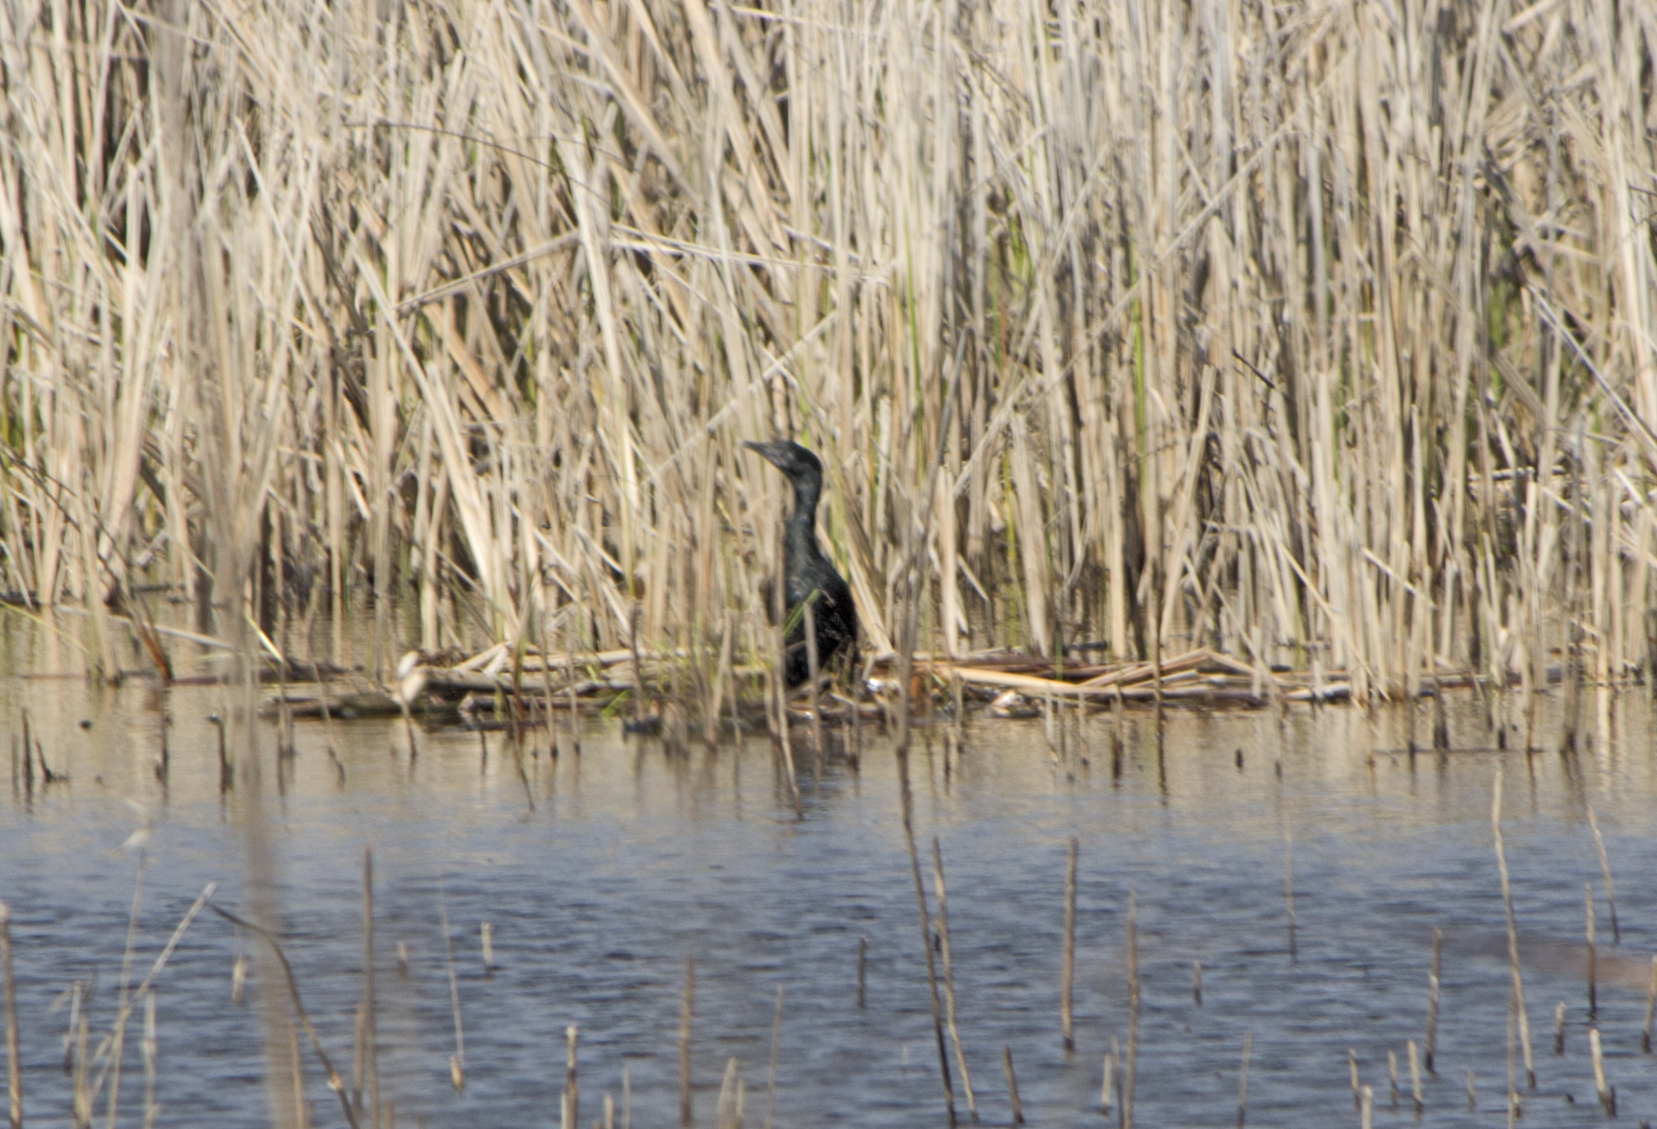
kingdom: Animalia
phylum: Chordata
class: Aves
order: Suliformes
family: Phalacrocoracidae
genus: Microcarbo
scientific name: Microcarbo pygmaeus
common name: Pygmy cormorant
